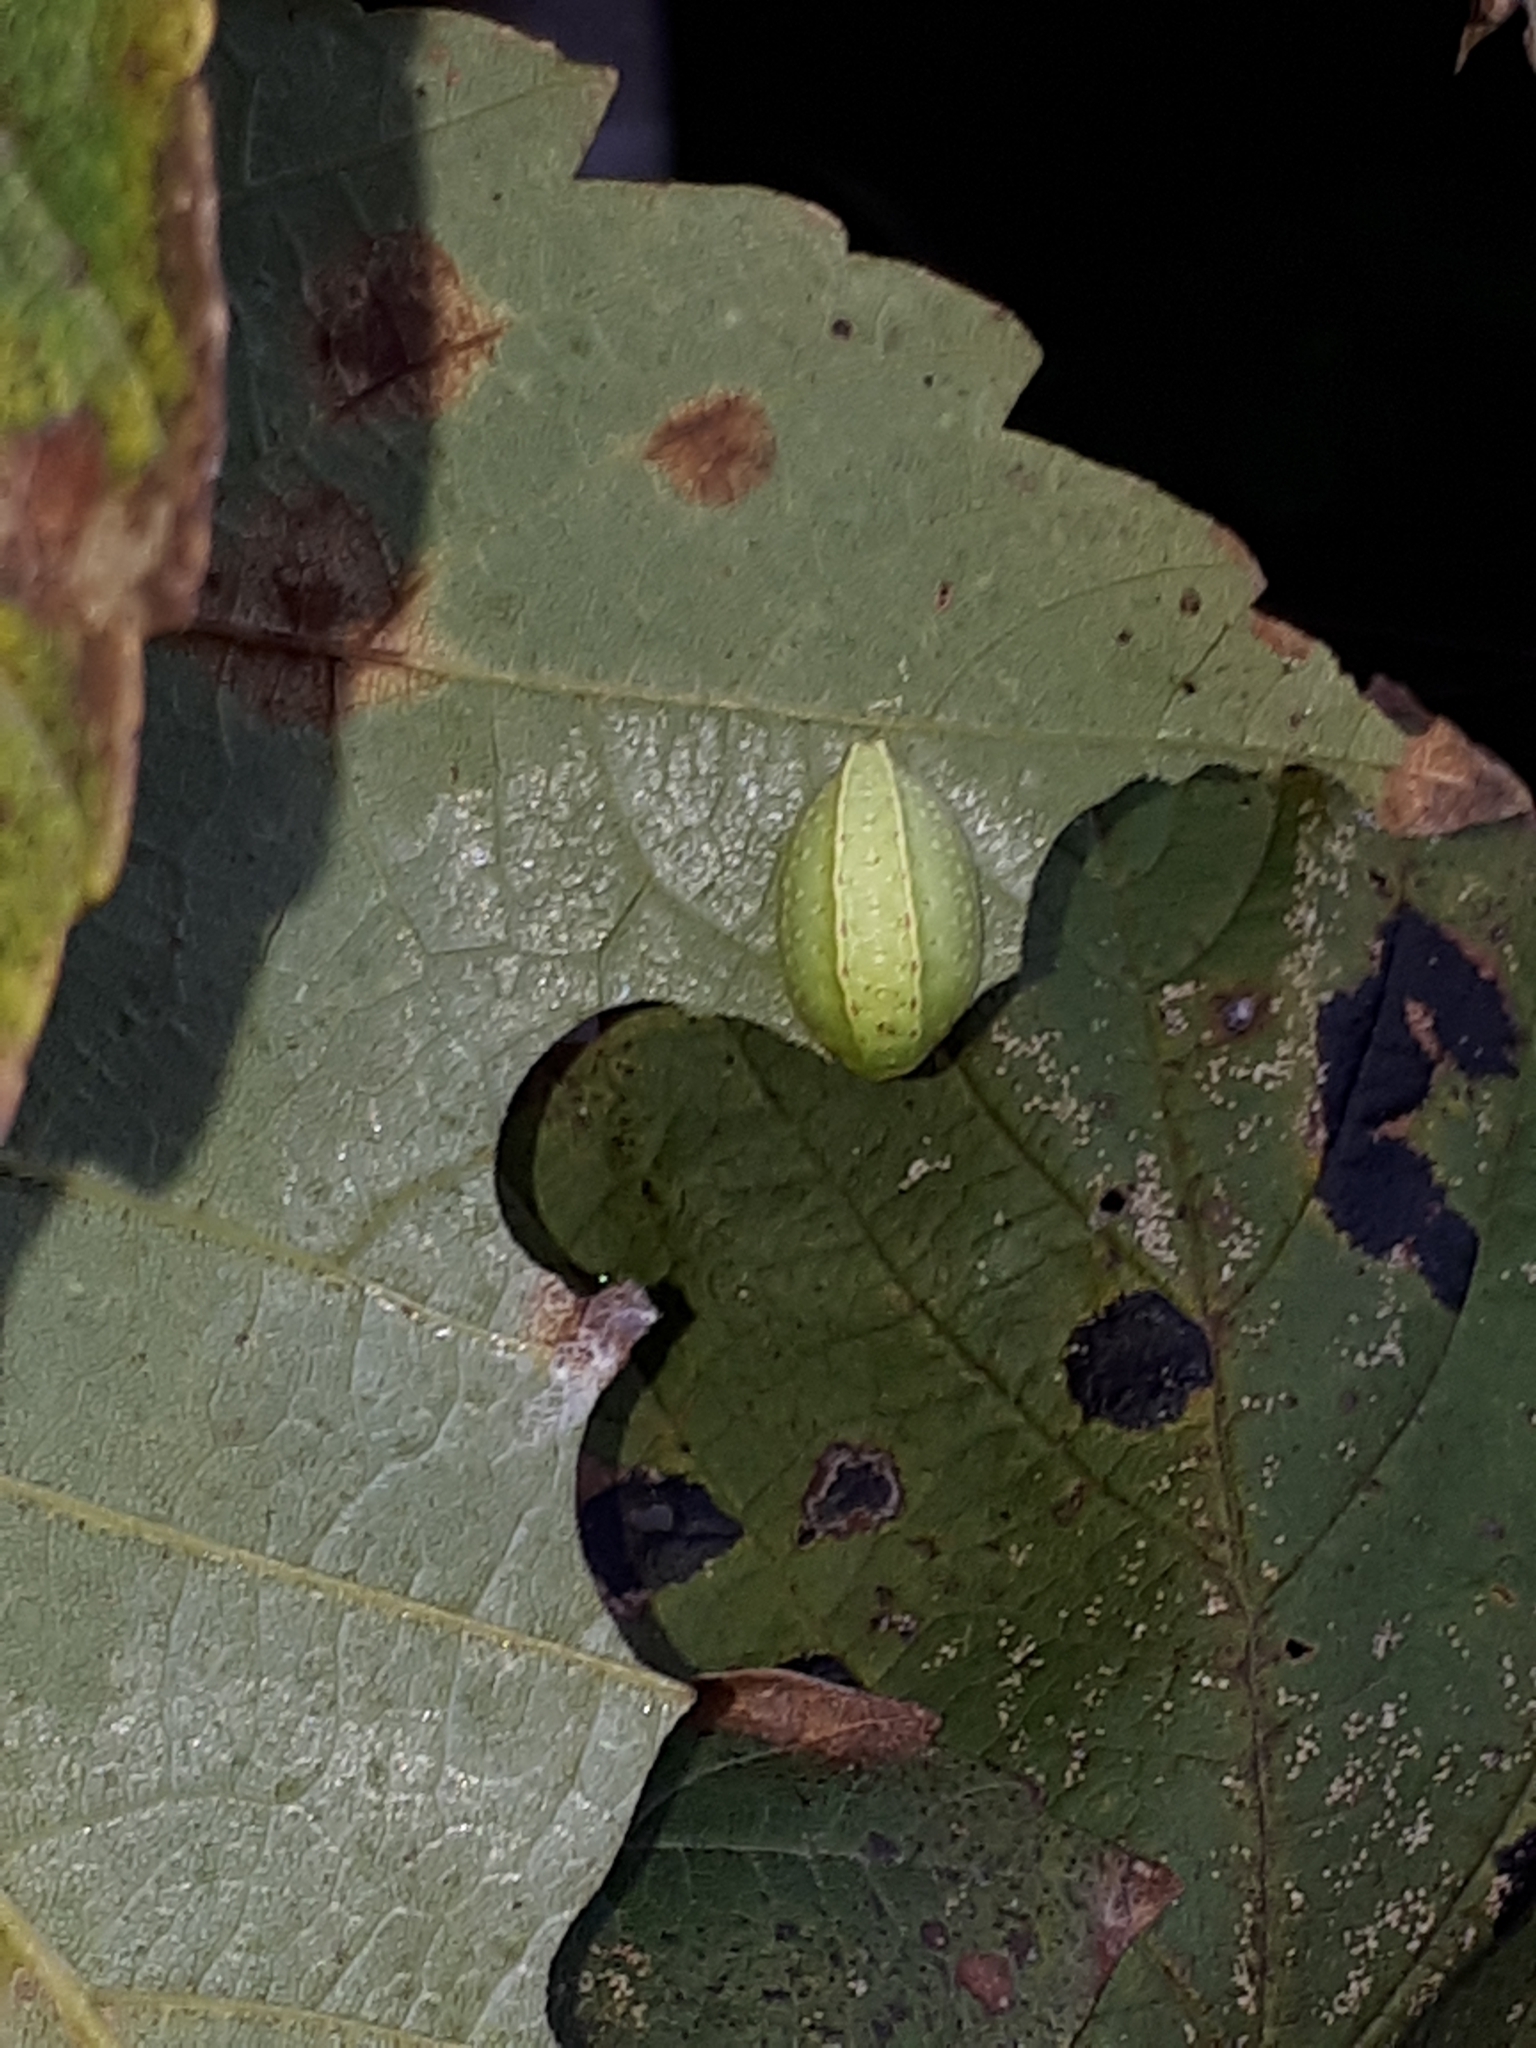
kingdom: Animalia
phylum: Arthropoda
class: Insecta
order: Lepidoptera
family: Limacodidae
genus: Apoda
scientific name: Apoda limacodes
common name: Festoon
